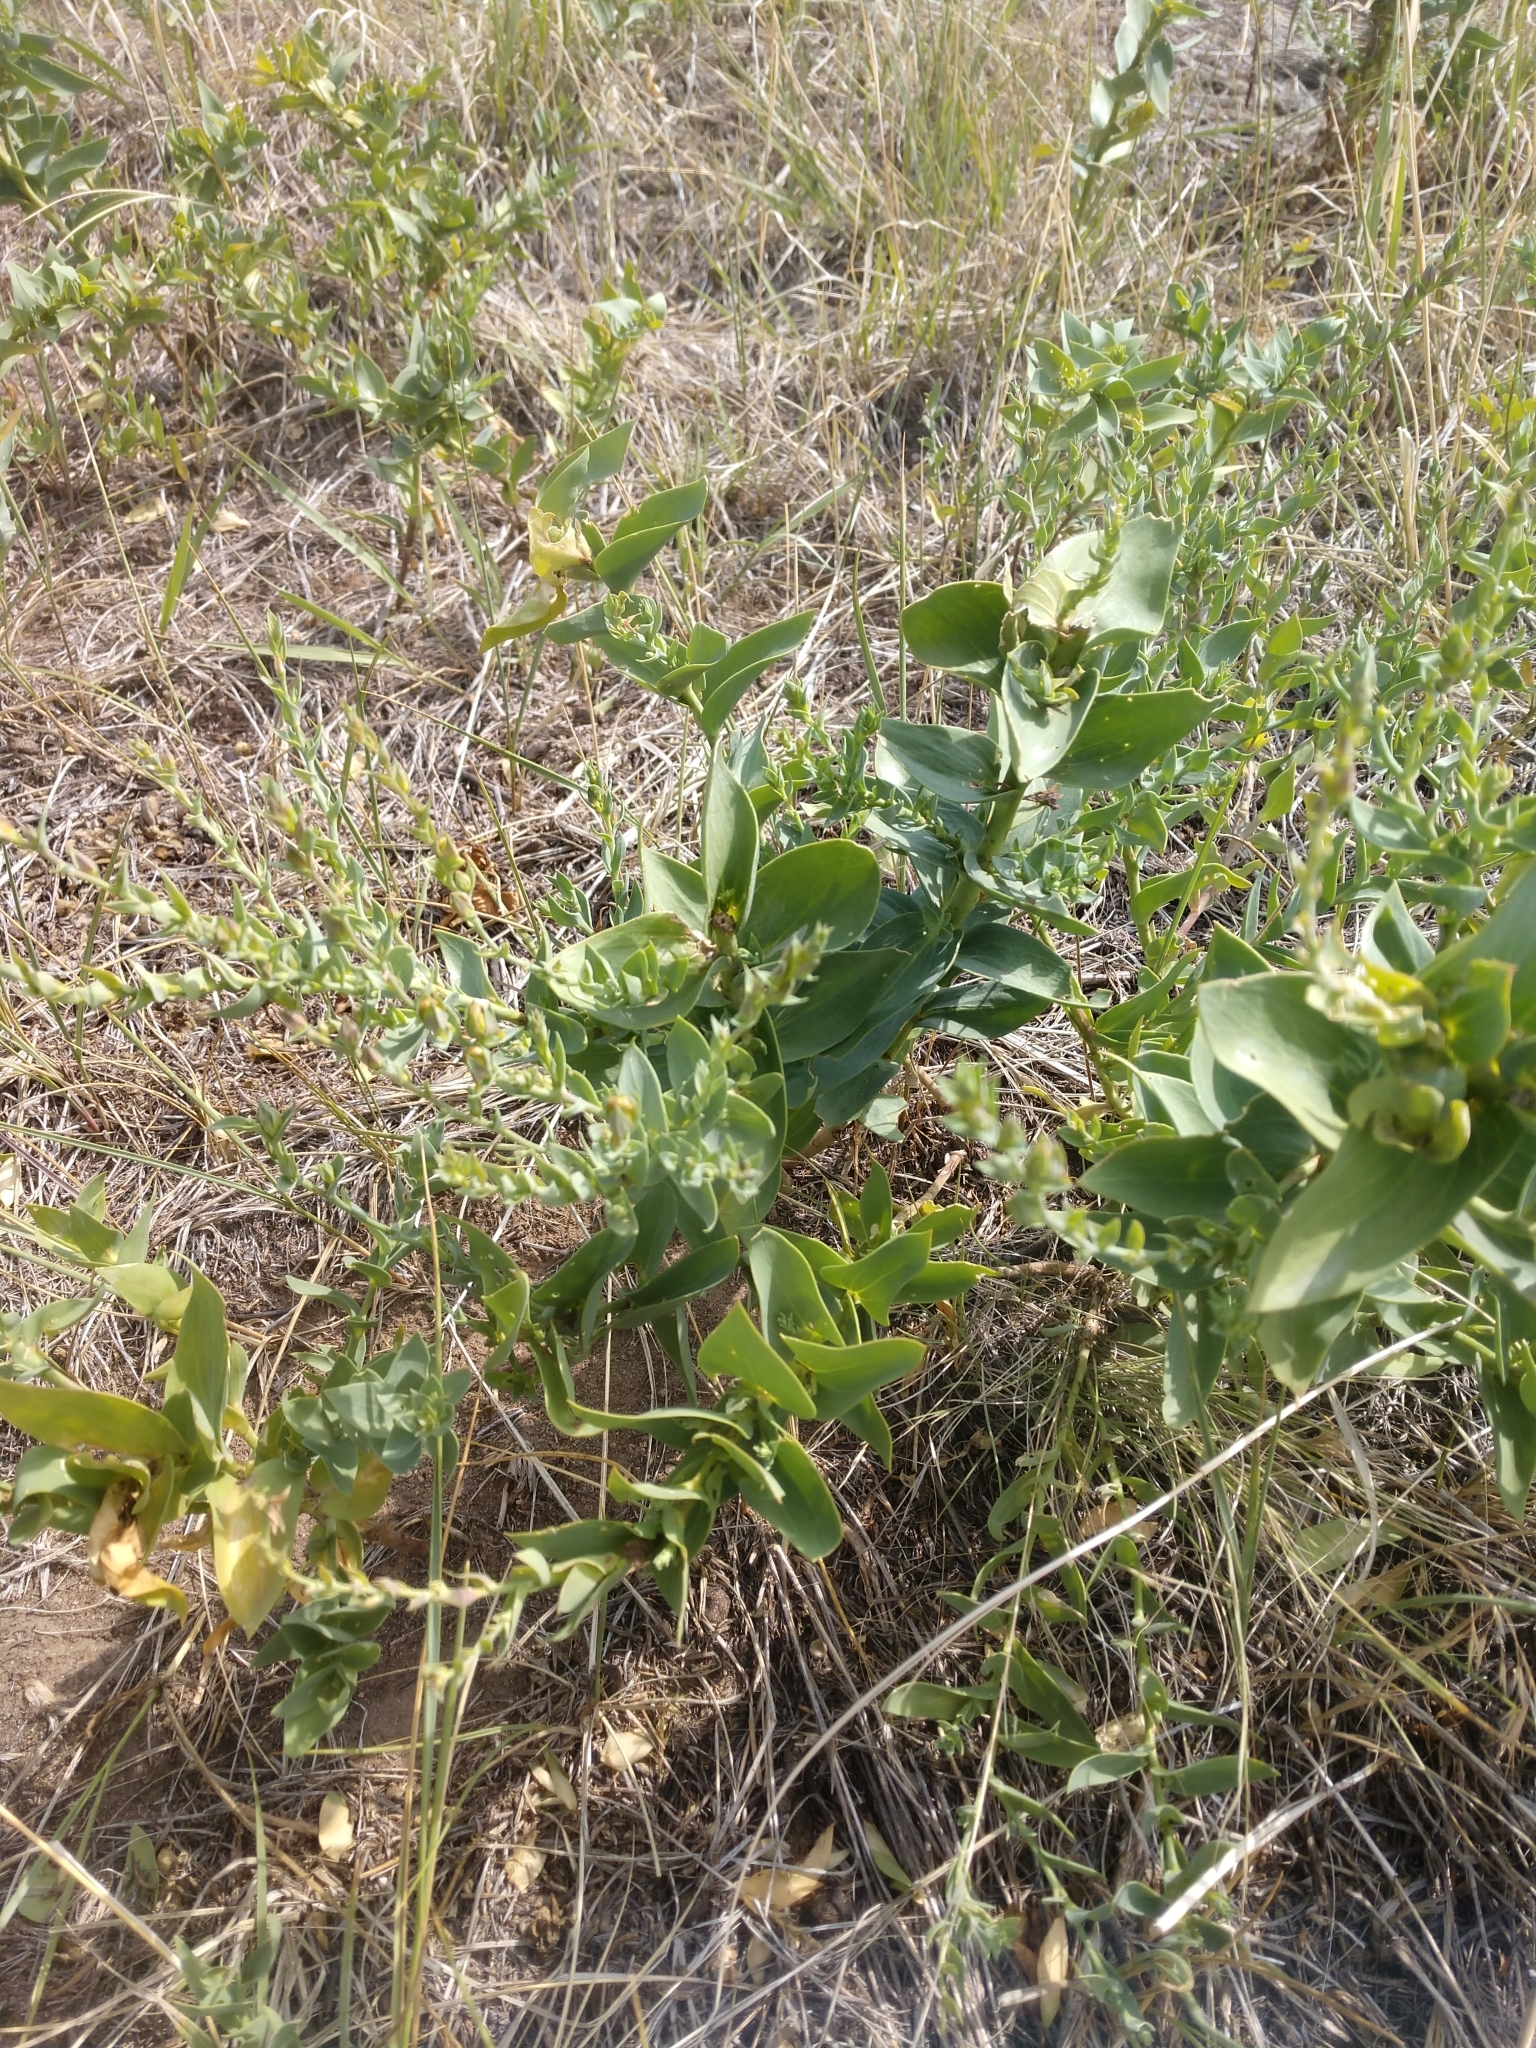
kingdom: Plantae
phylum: Tracheophyta
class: Magnoliopsida
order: Lamiales
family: Plantaginaceae
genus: Linaria
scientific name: Linaria dalmatica
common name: Dalmatian toadflax
